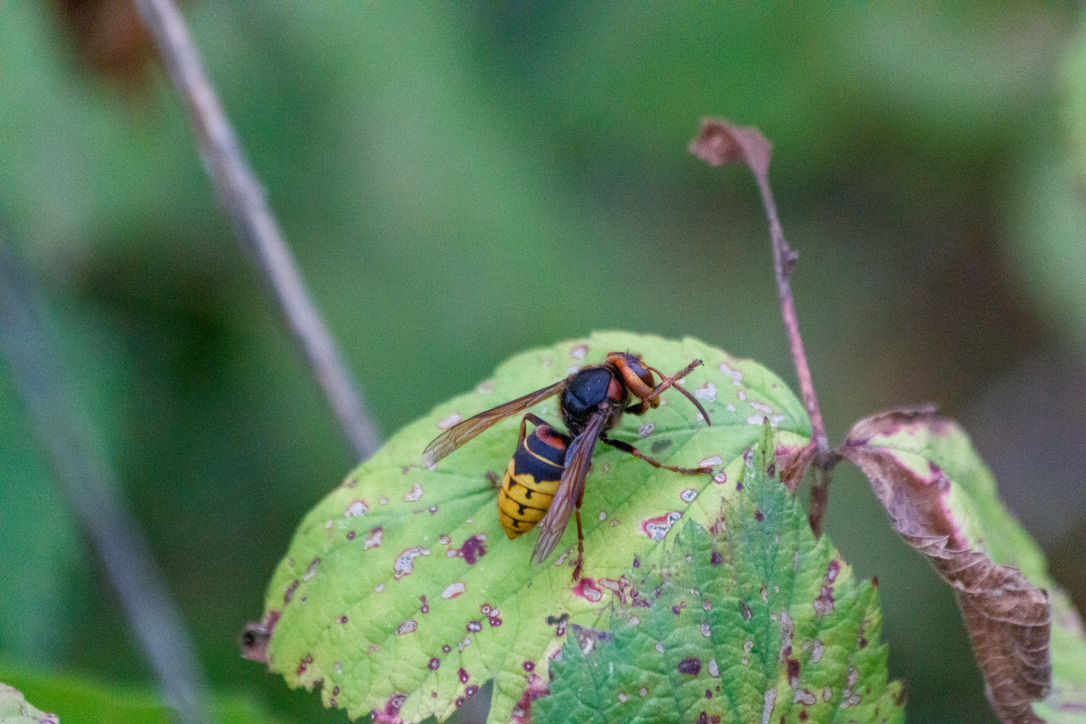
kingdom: Animalia
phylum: Arthropoda
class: Insecta
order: Hymenoptera
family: Vespidae
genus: Vespa
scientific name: Vespa crabro
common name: Hornet
